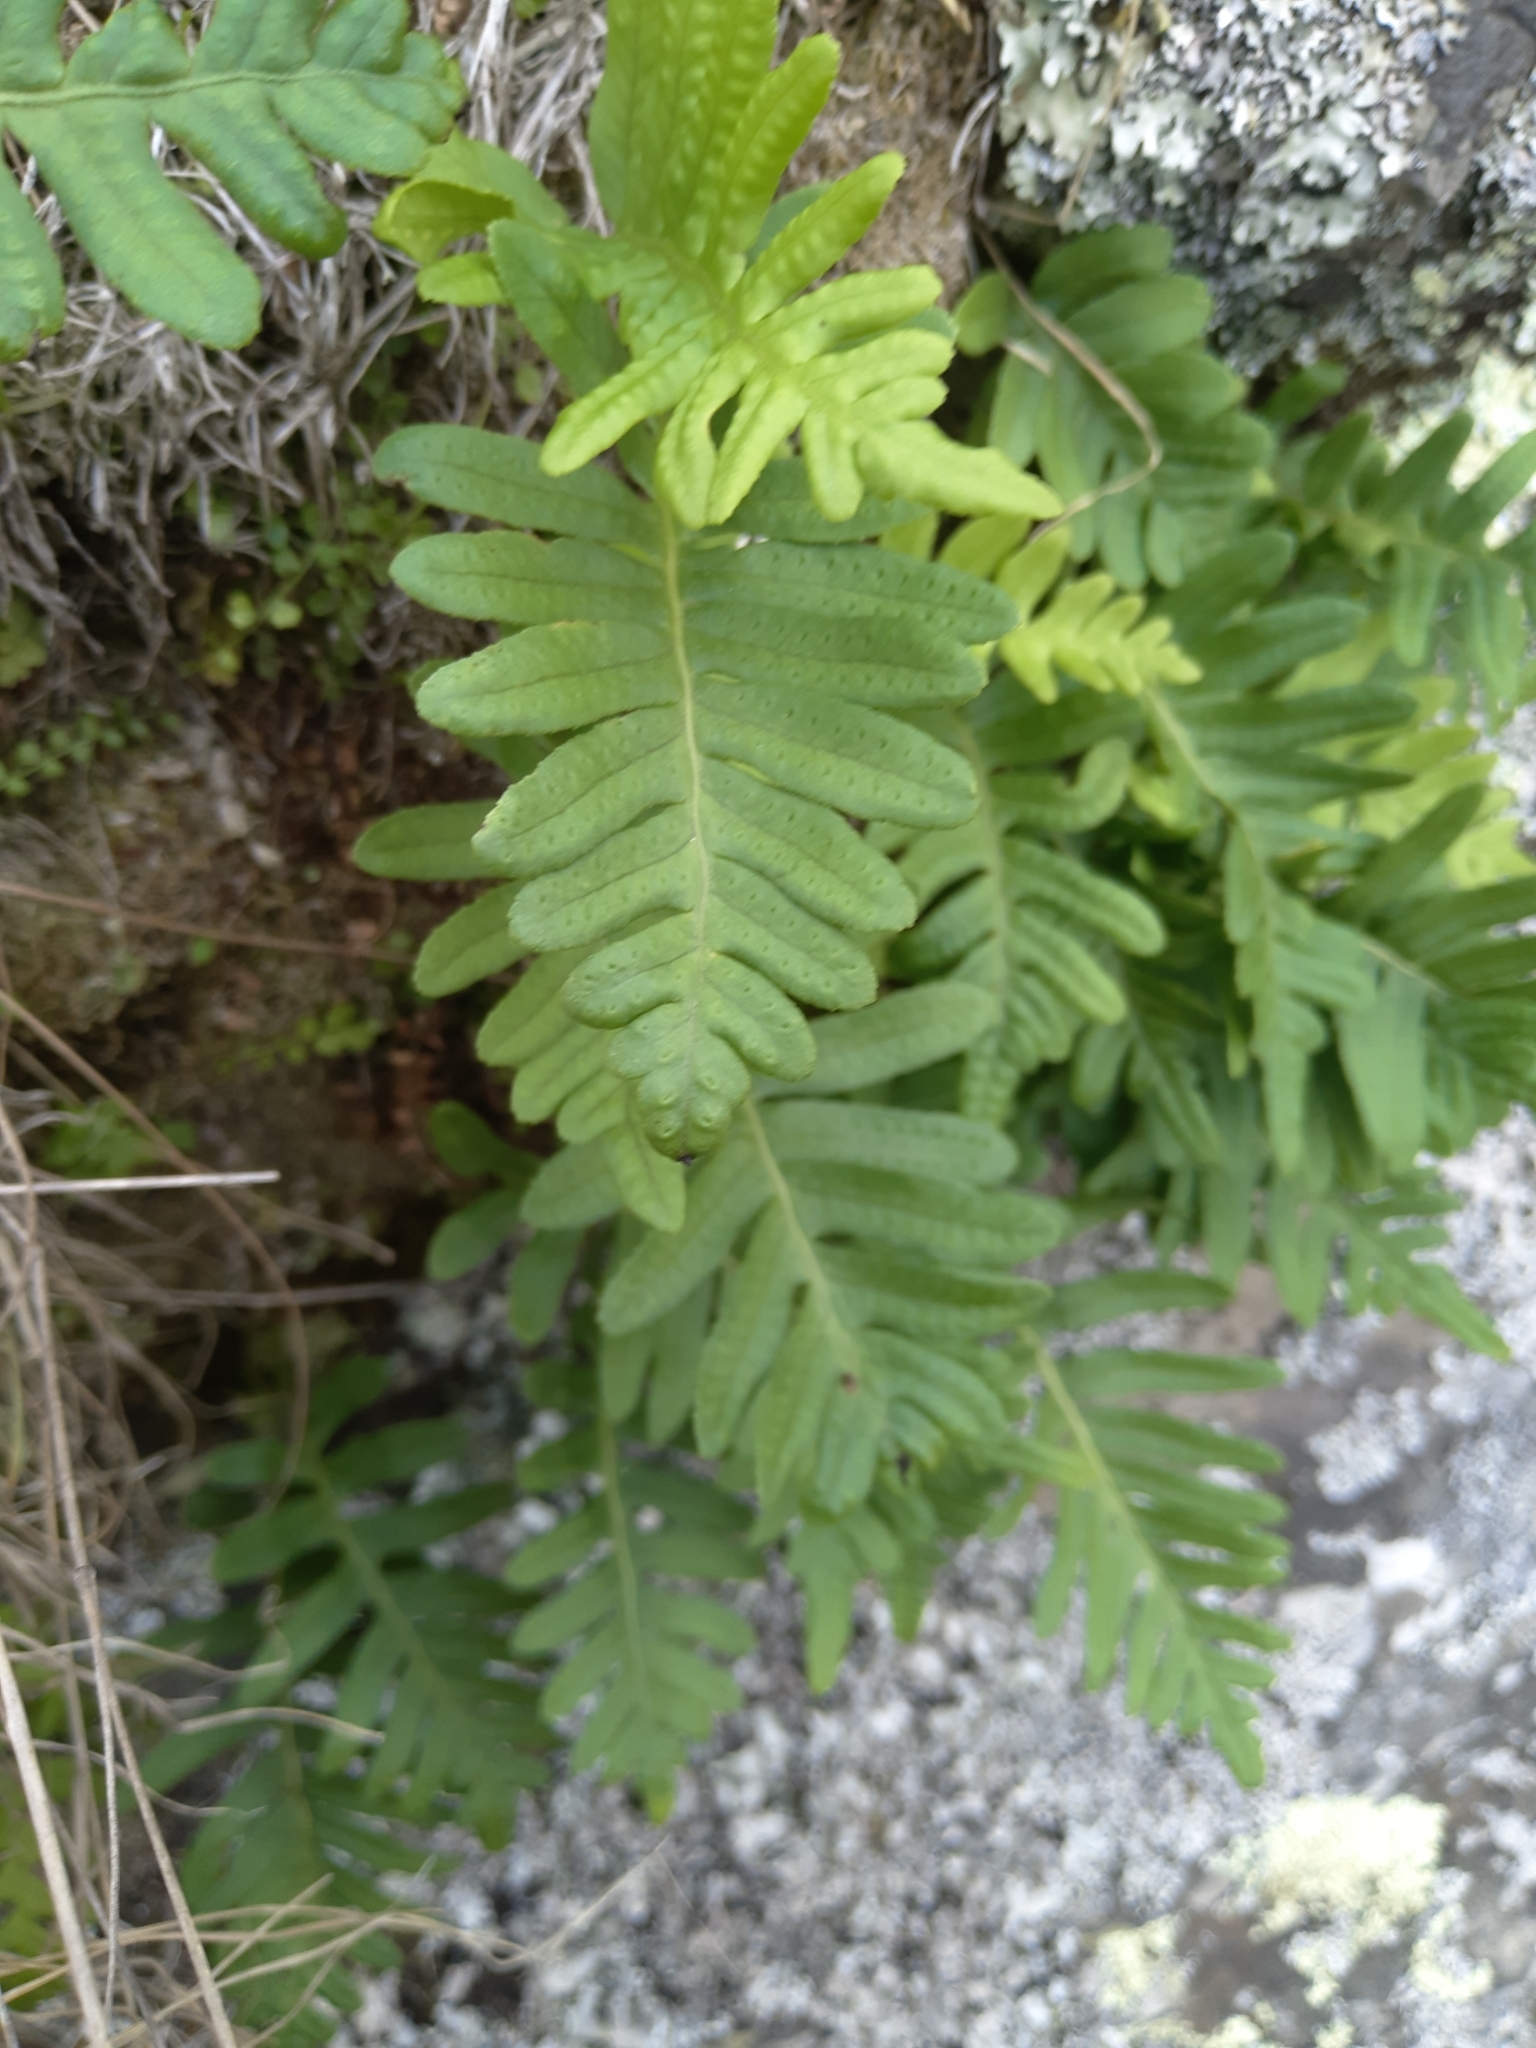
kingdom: Plantae
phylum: Tracheophyta
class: Polypodiopsida
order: Polypodiales
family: Polypodiaceae
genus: Polypodium
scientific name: Polypodium vulgare
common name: Common polypody
